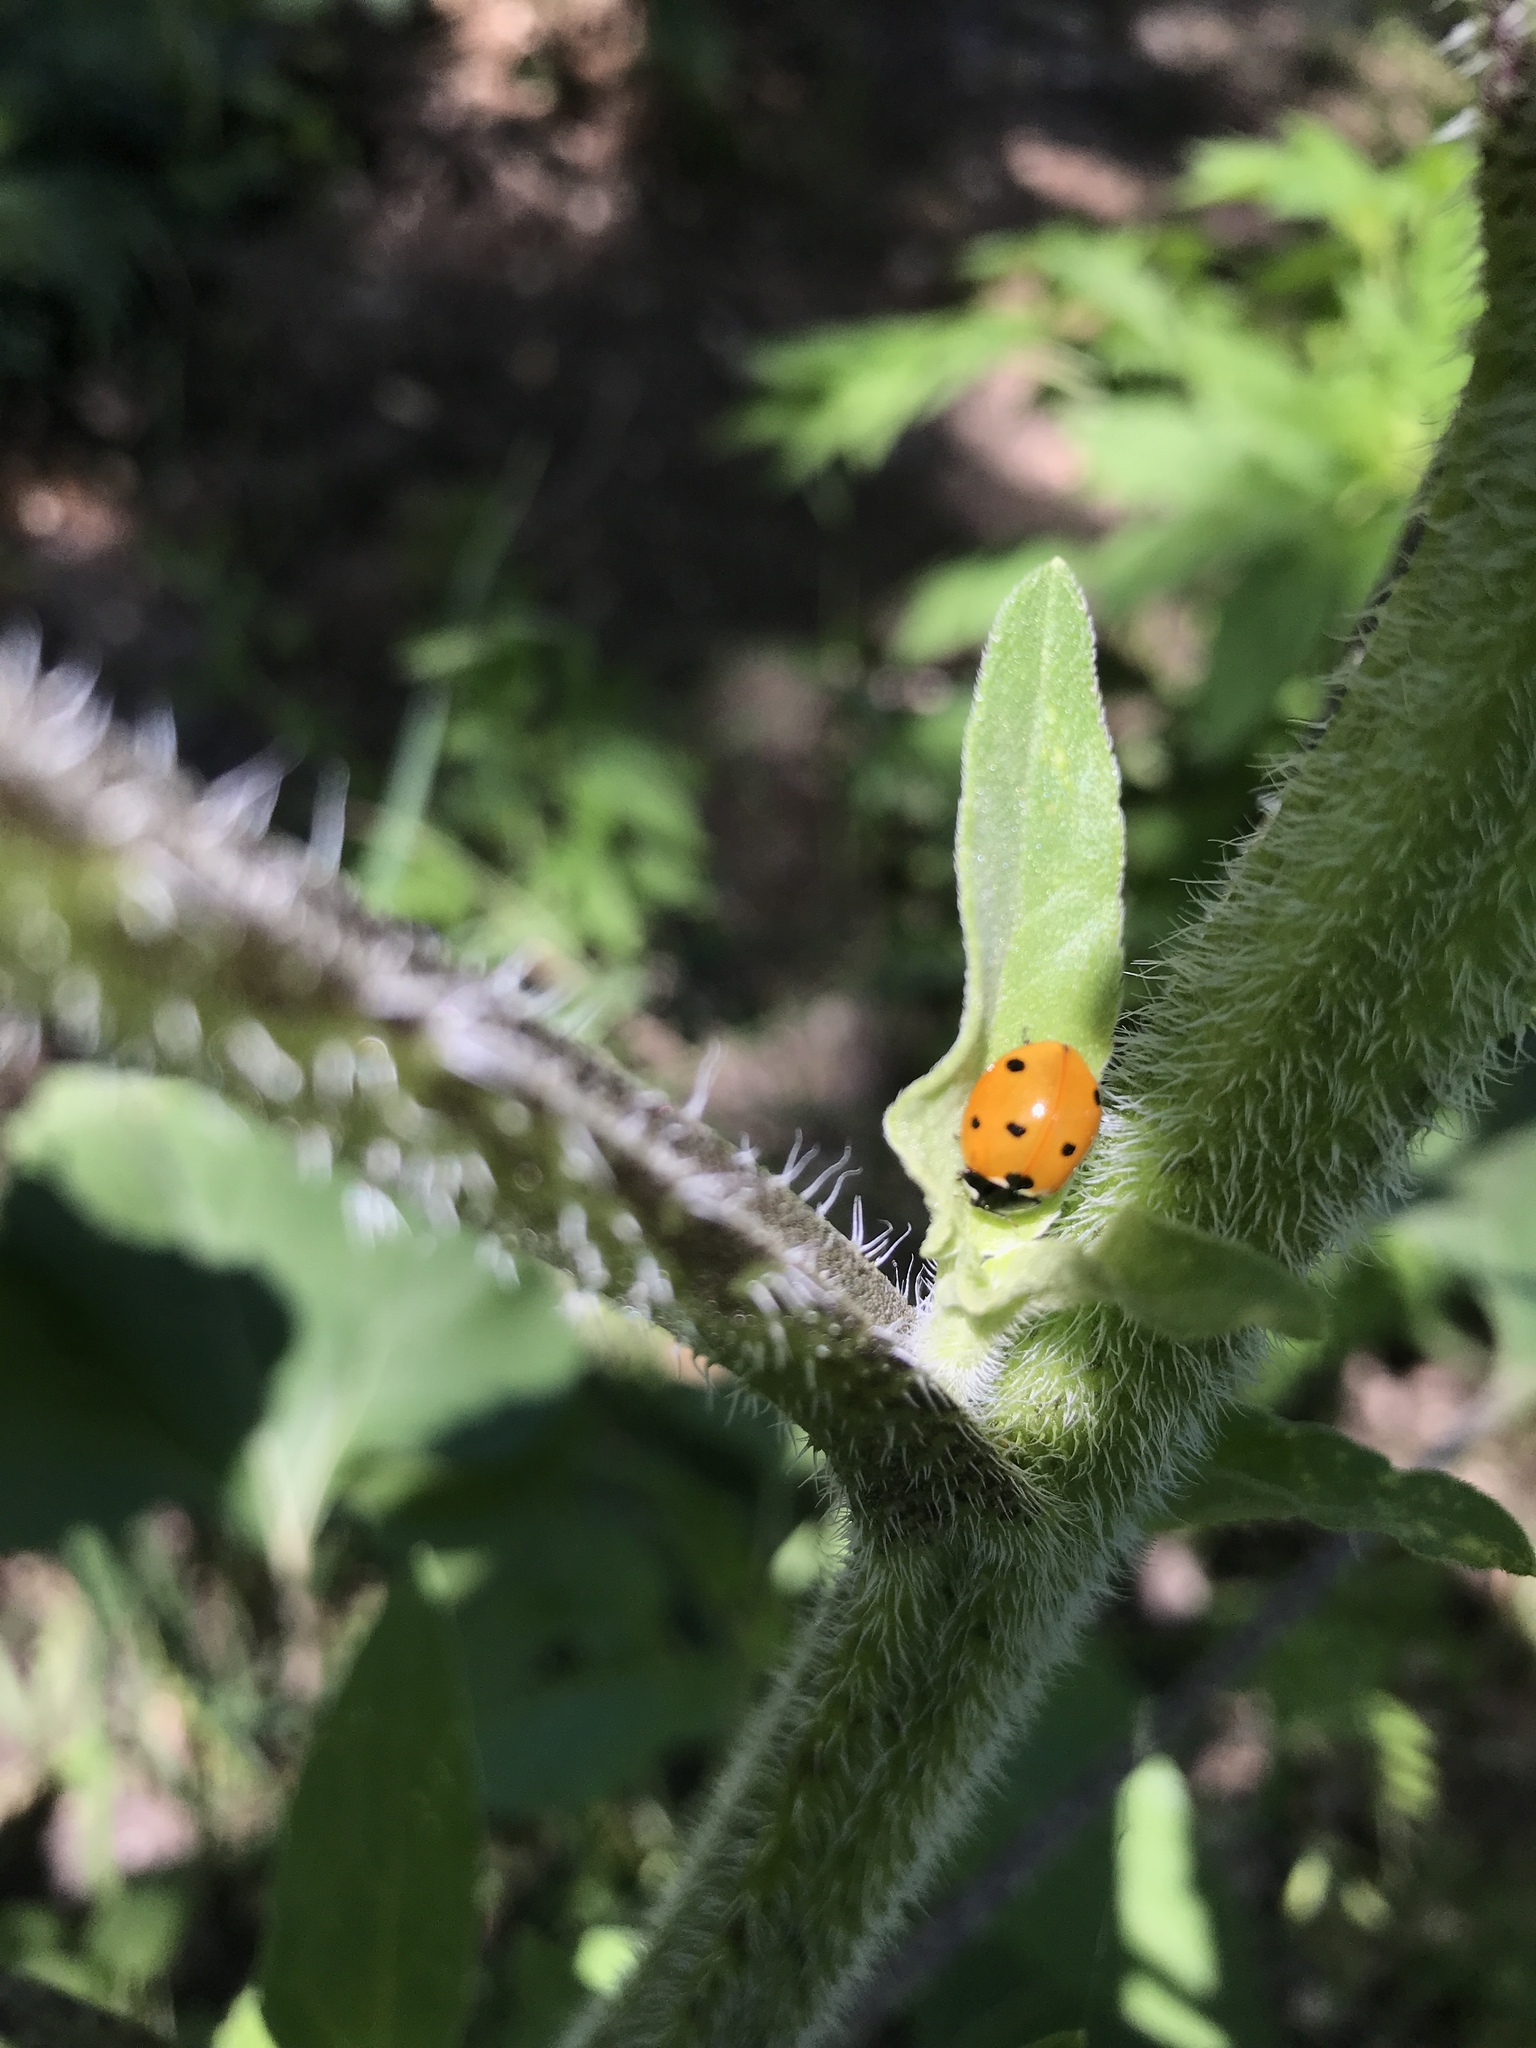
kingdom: Animalia
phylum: Arthropoda
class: Insecta
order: Coleoptera
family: Coccinellidae
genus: Coccinella
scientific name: Coccinella septempunctata
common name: Sevenspotted lady beetle
